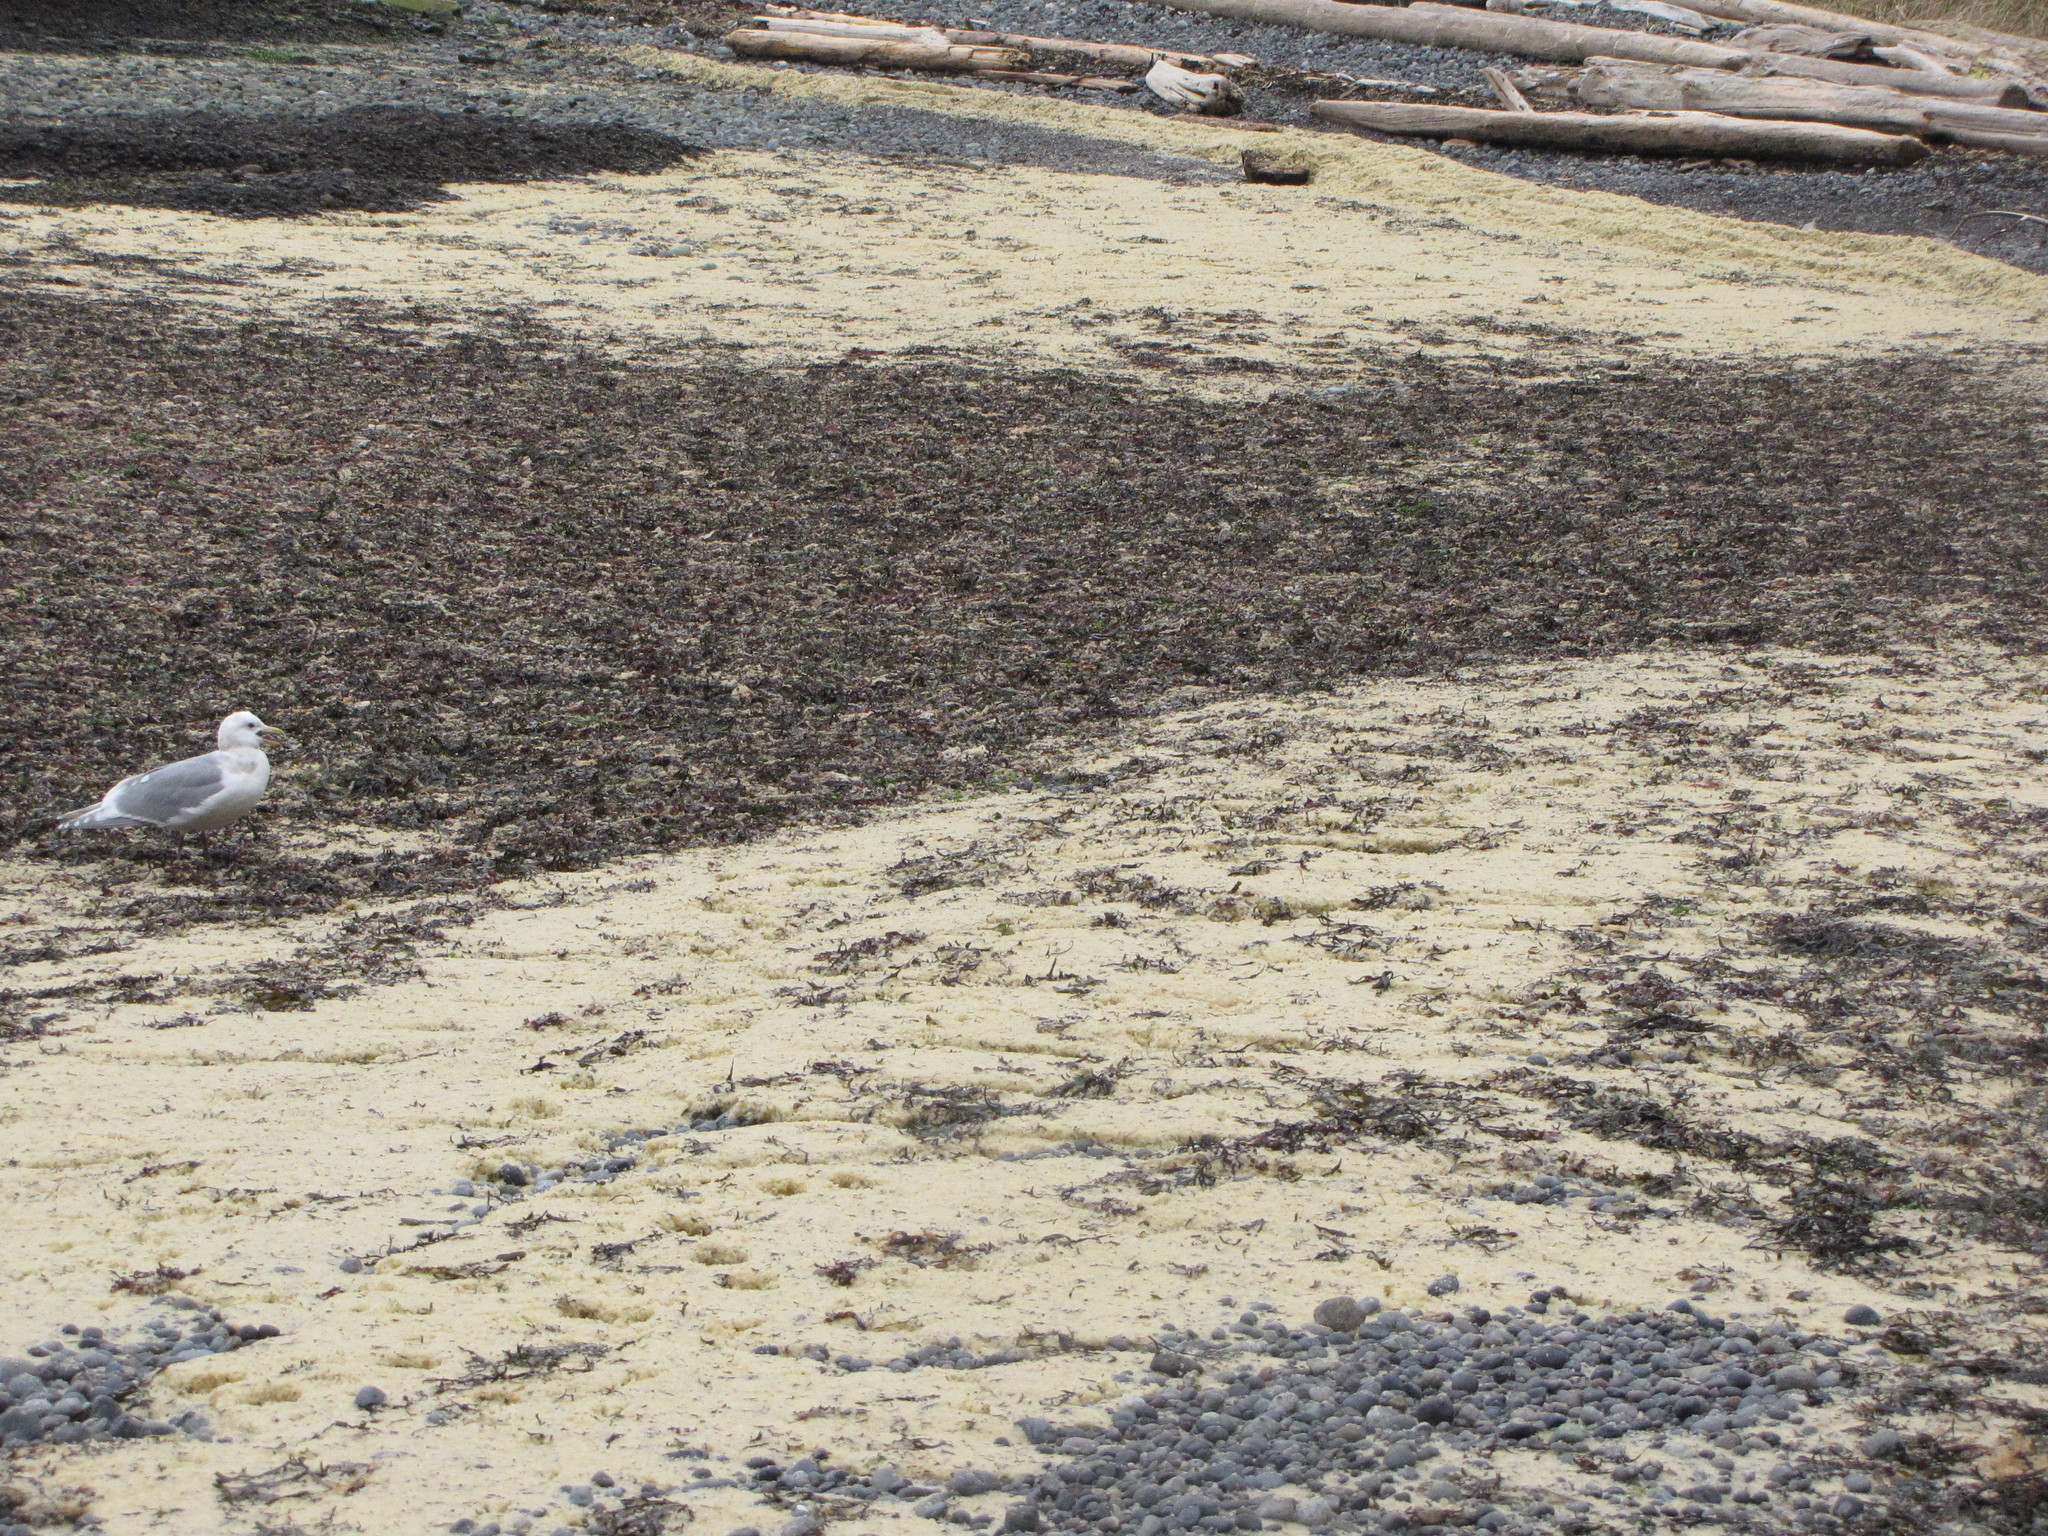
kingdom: Animalia
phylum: Chordata
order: Clupeiformes
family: Clupeidae
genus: Clupea
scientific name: Clupea pallasii
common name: Pacific herring
